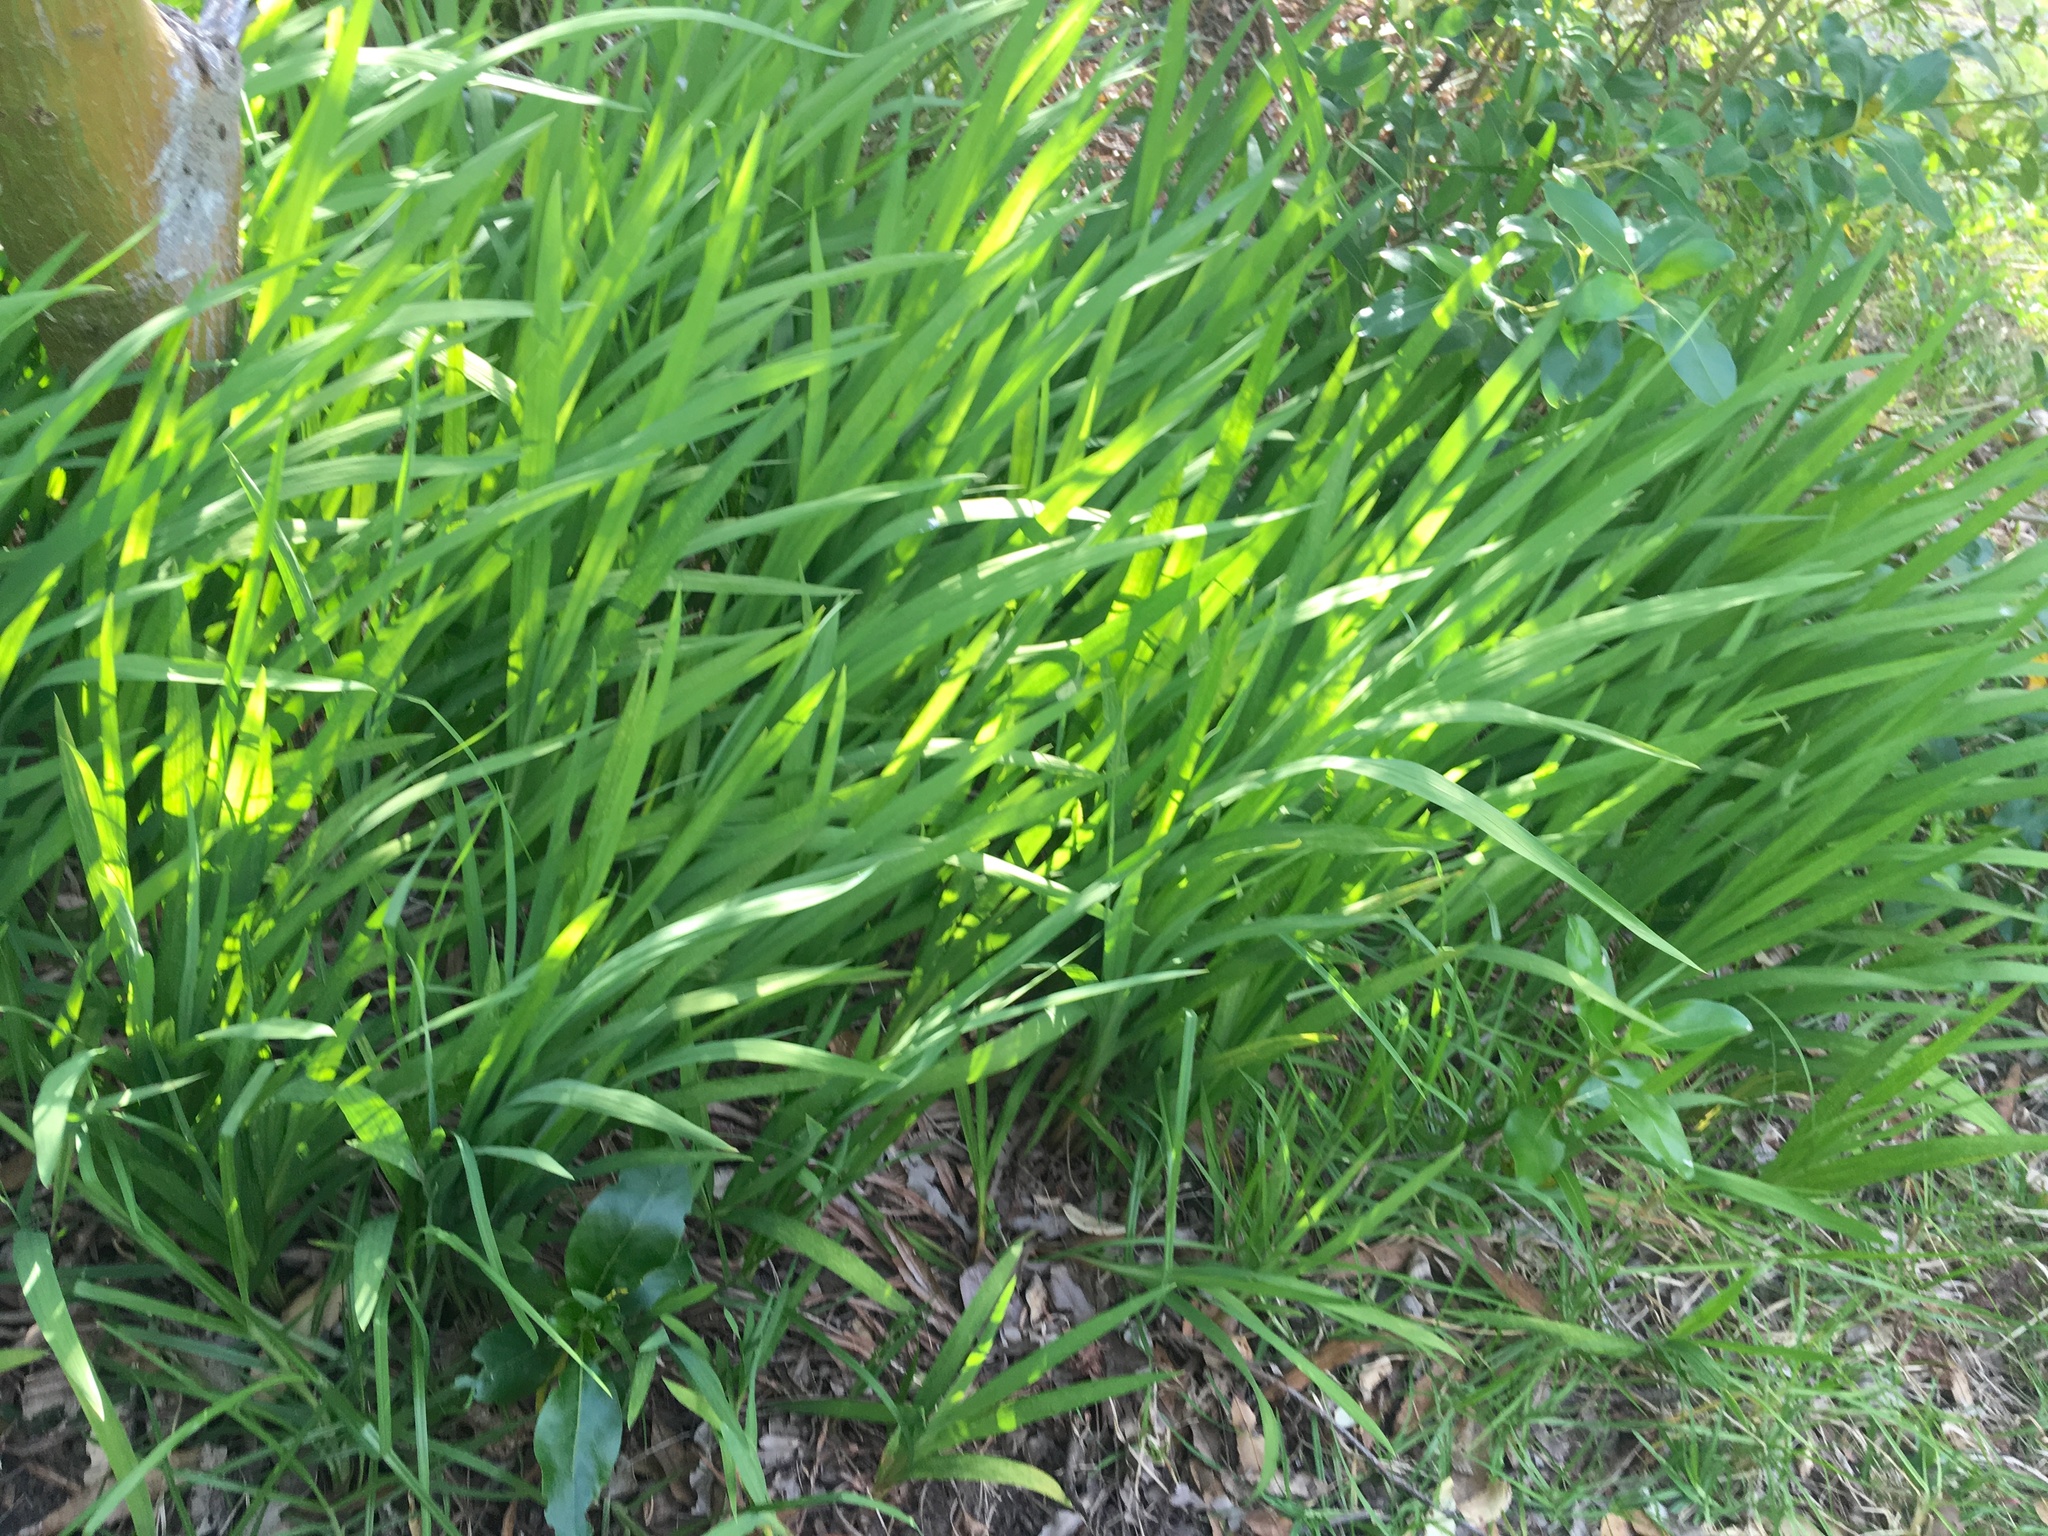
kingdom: Plantae
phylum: Tracheophyta
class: Liliopsida
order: Asparagales
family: Iridaceae
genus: Crocosmia
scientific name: Crocosmia crocosmiiflora
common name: Montbretia
